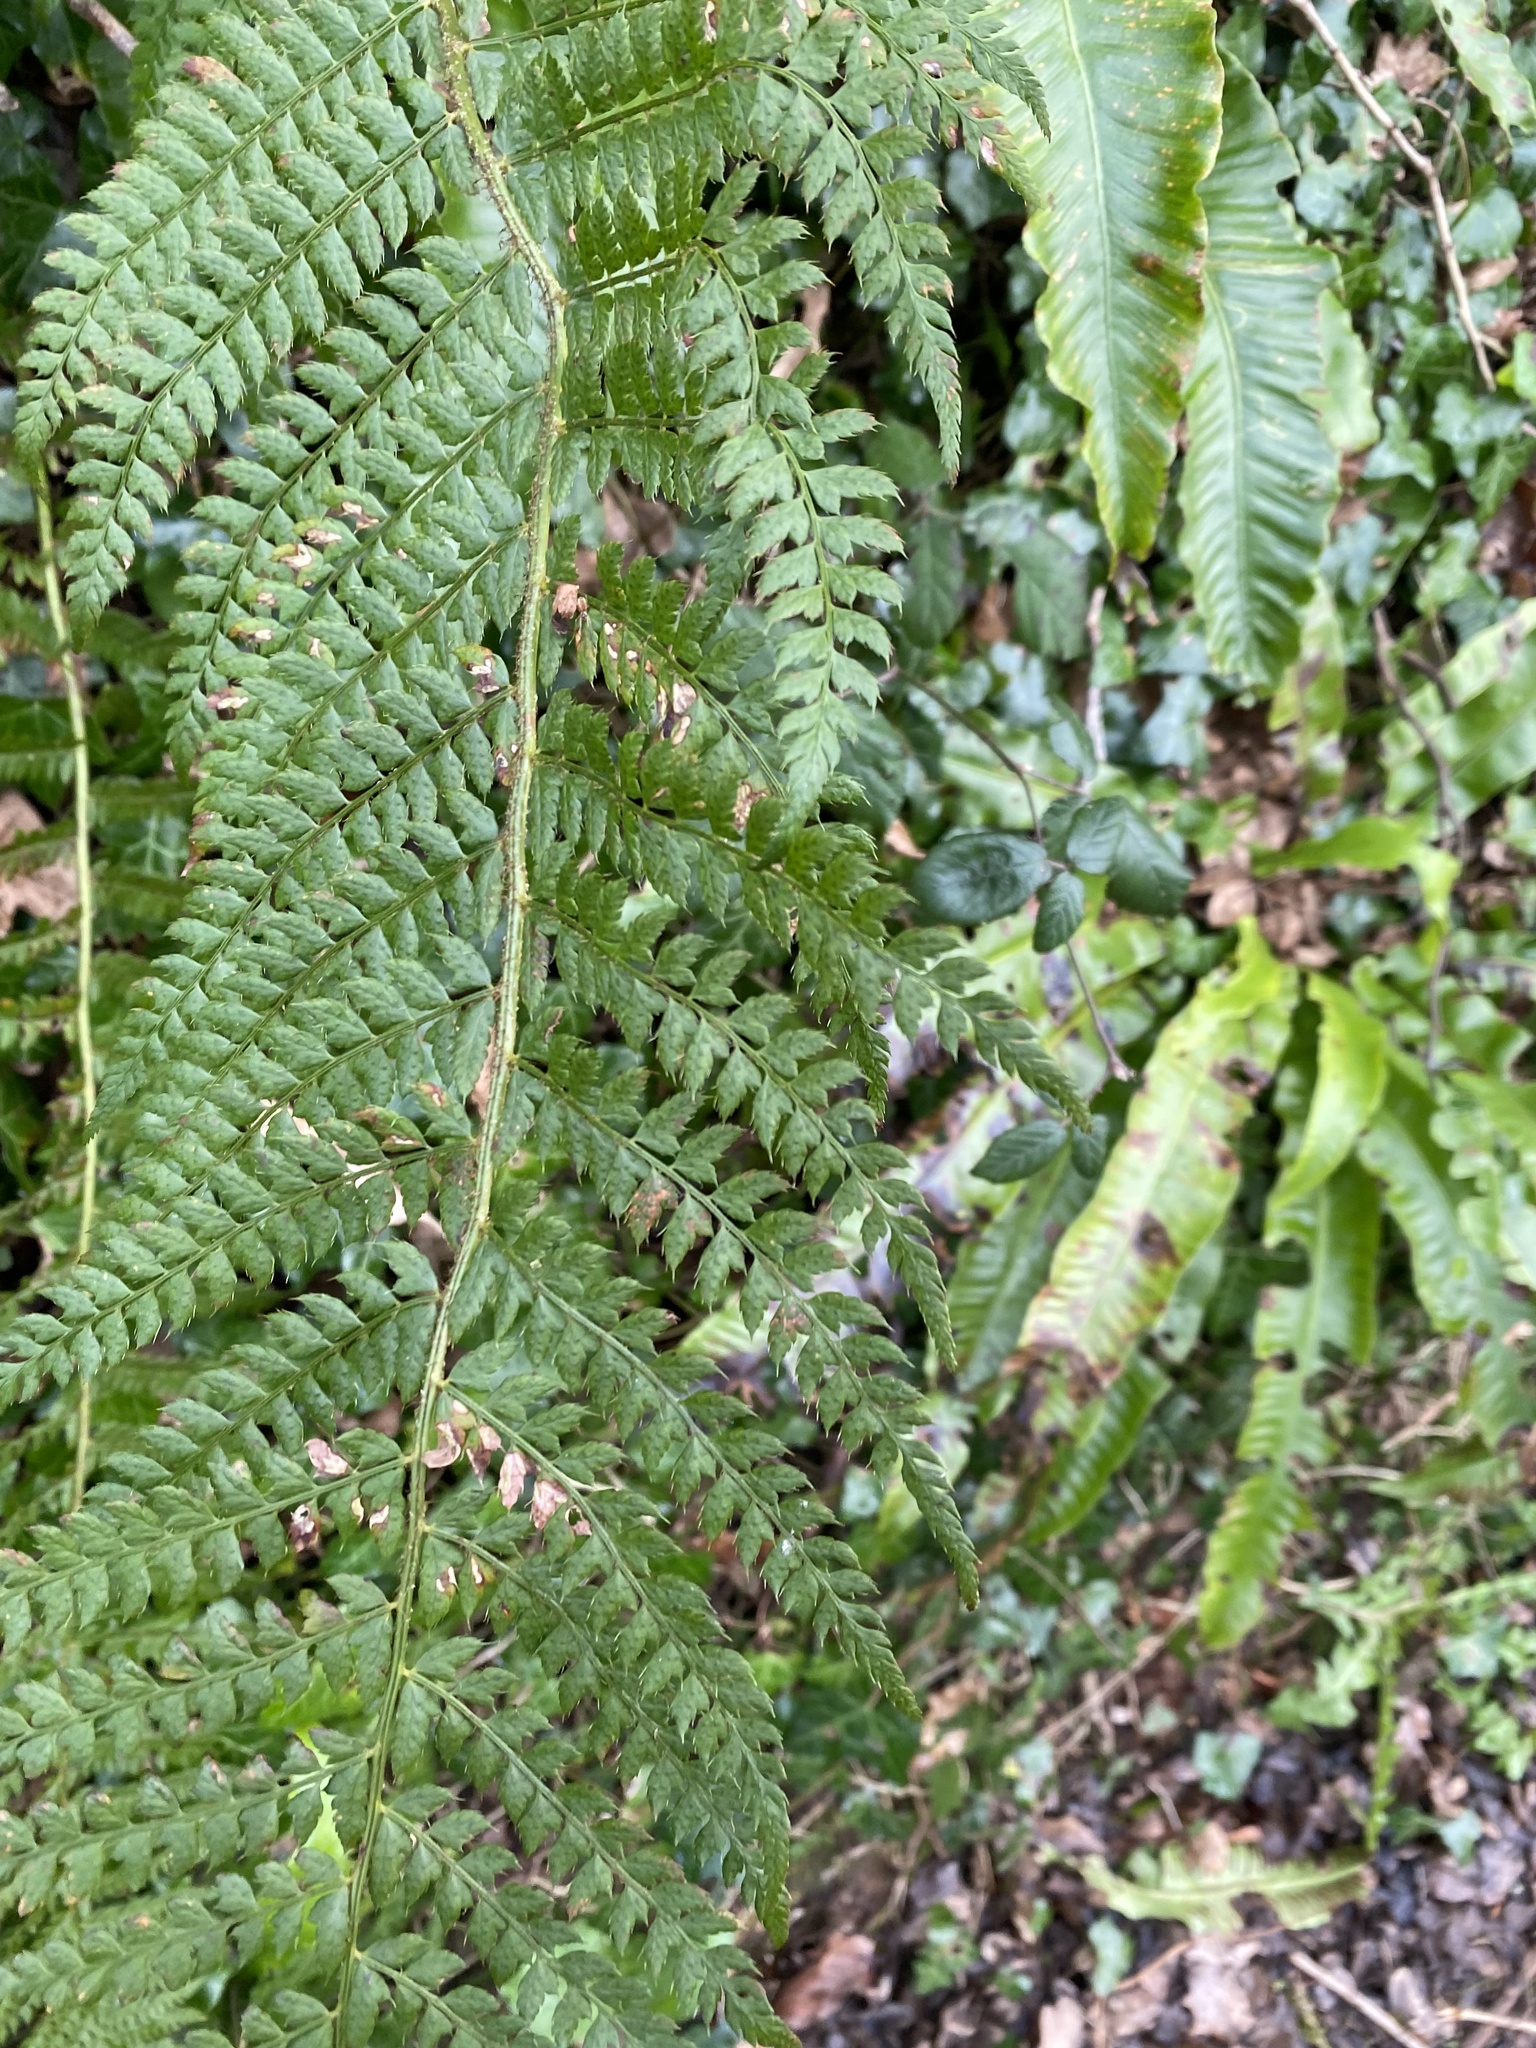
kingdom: Plantae
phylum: Tracheophyta
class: Polypodiopsida
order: Polypodiales
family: Dryopteridaceae
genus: Polystichum
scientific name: Polystichum setiferum
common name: Soft shield-fern
